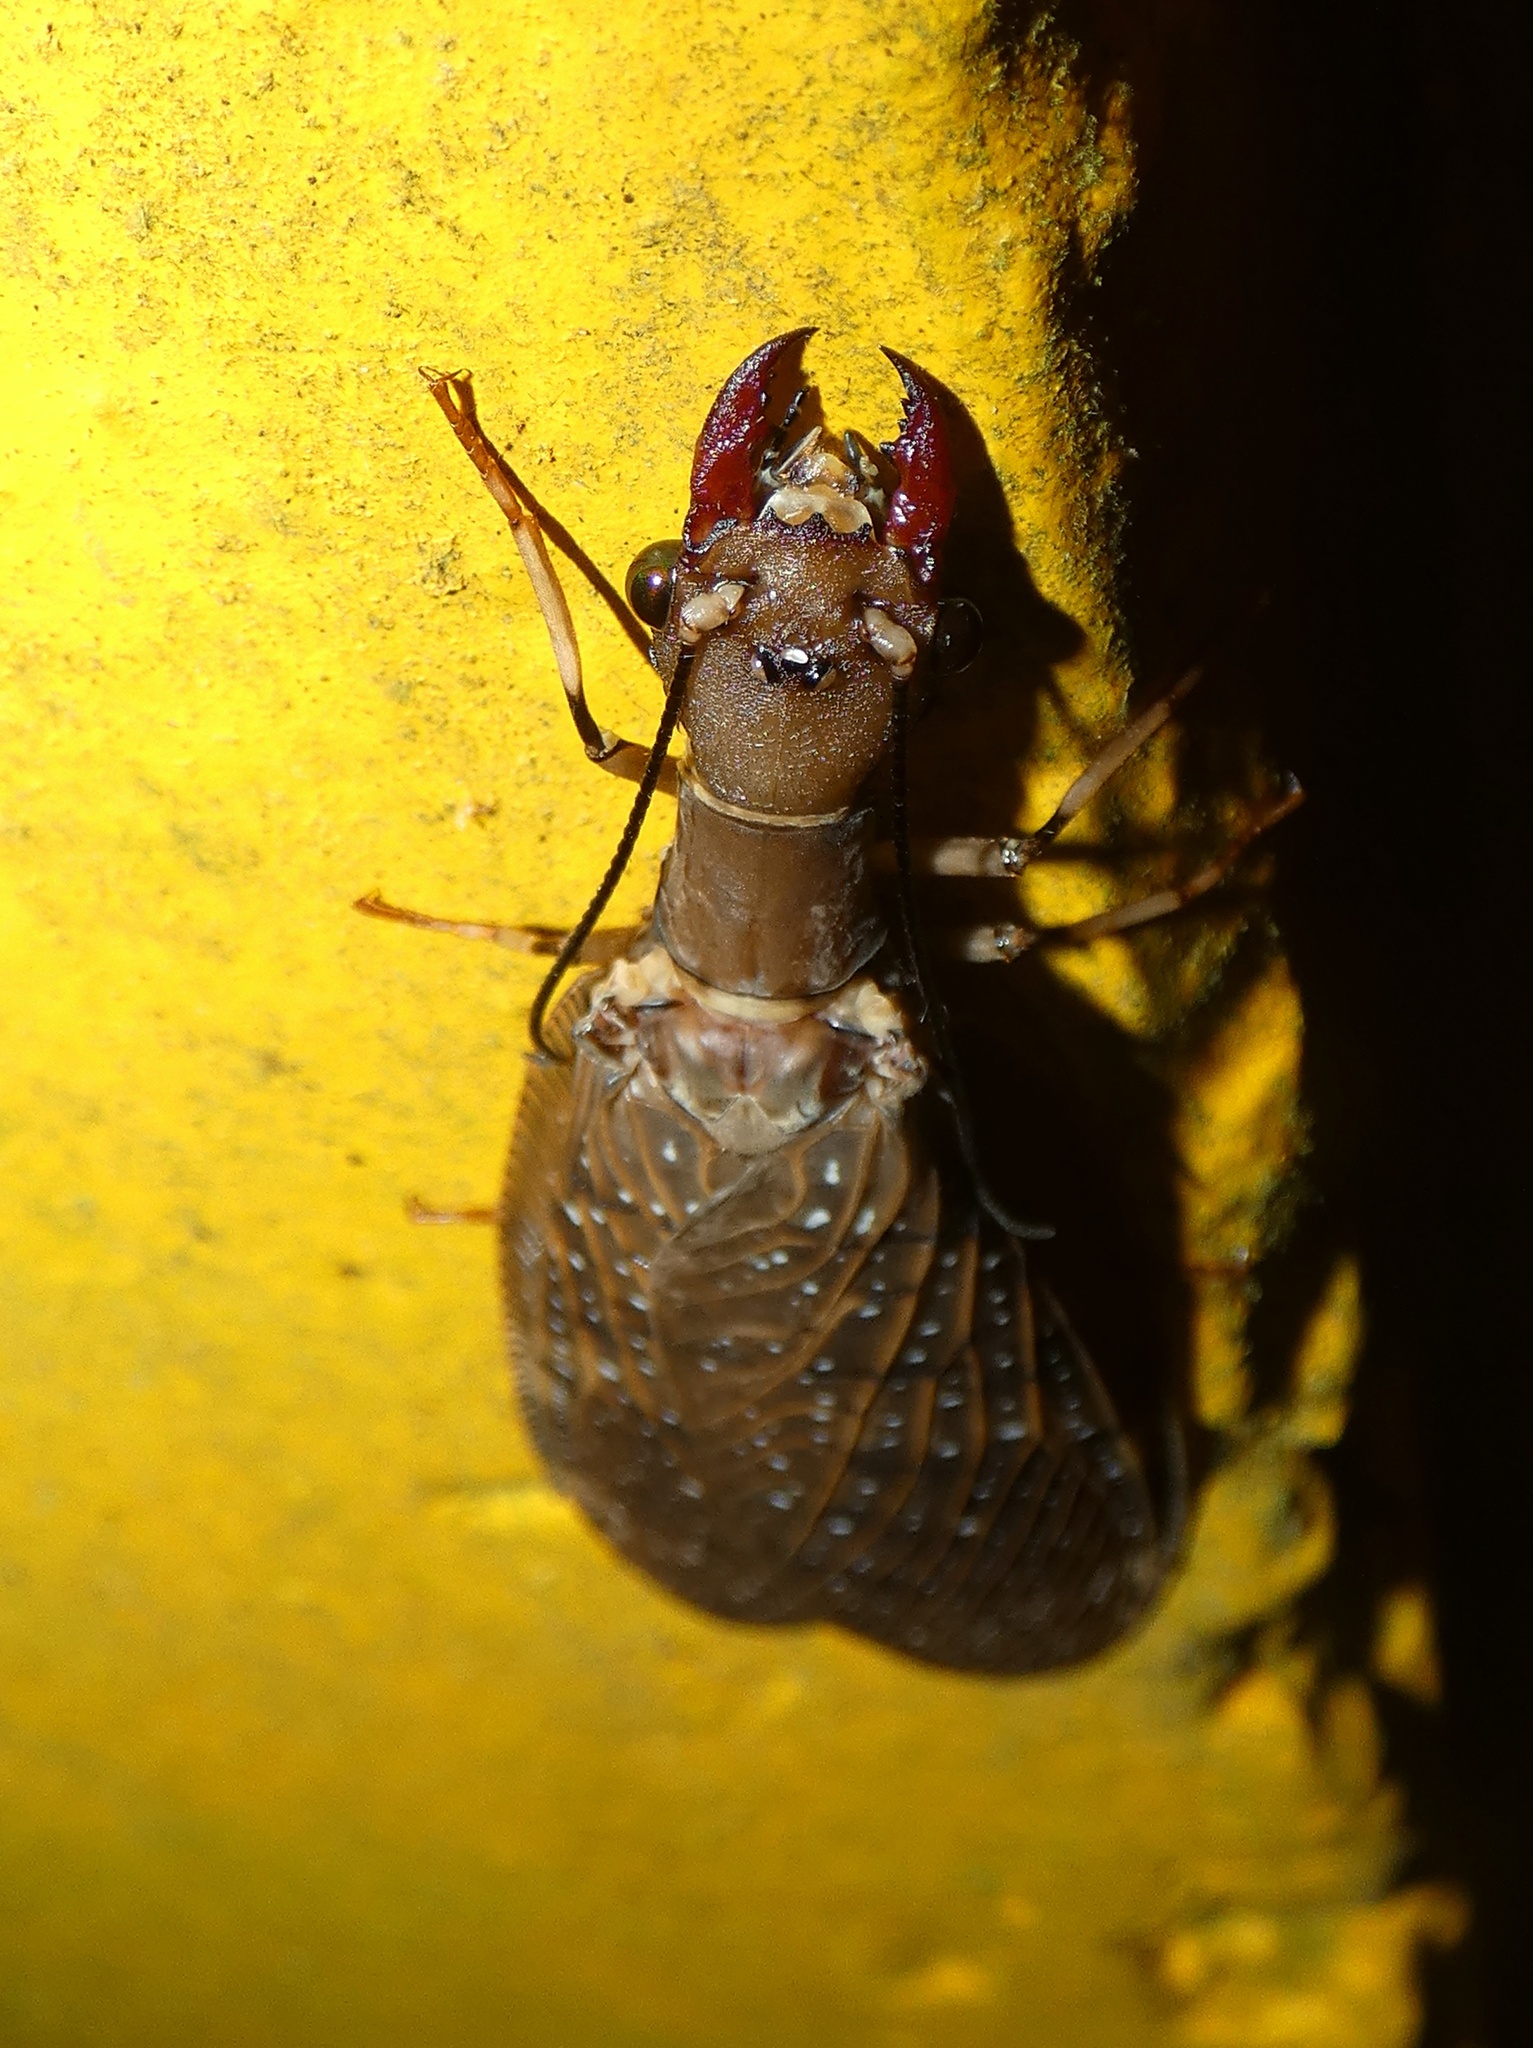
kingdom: Animalia
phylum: Arthropoda
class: Insecta
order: Megaloptera
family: Corydalidae
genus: Corydalus
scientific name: Corydalus peruvianus
